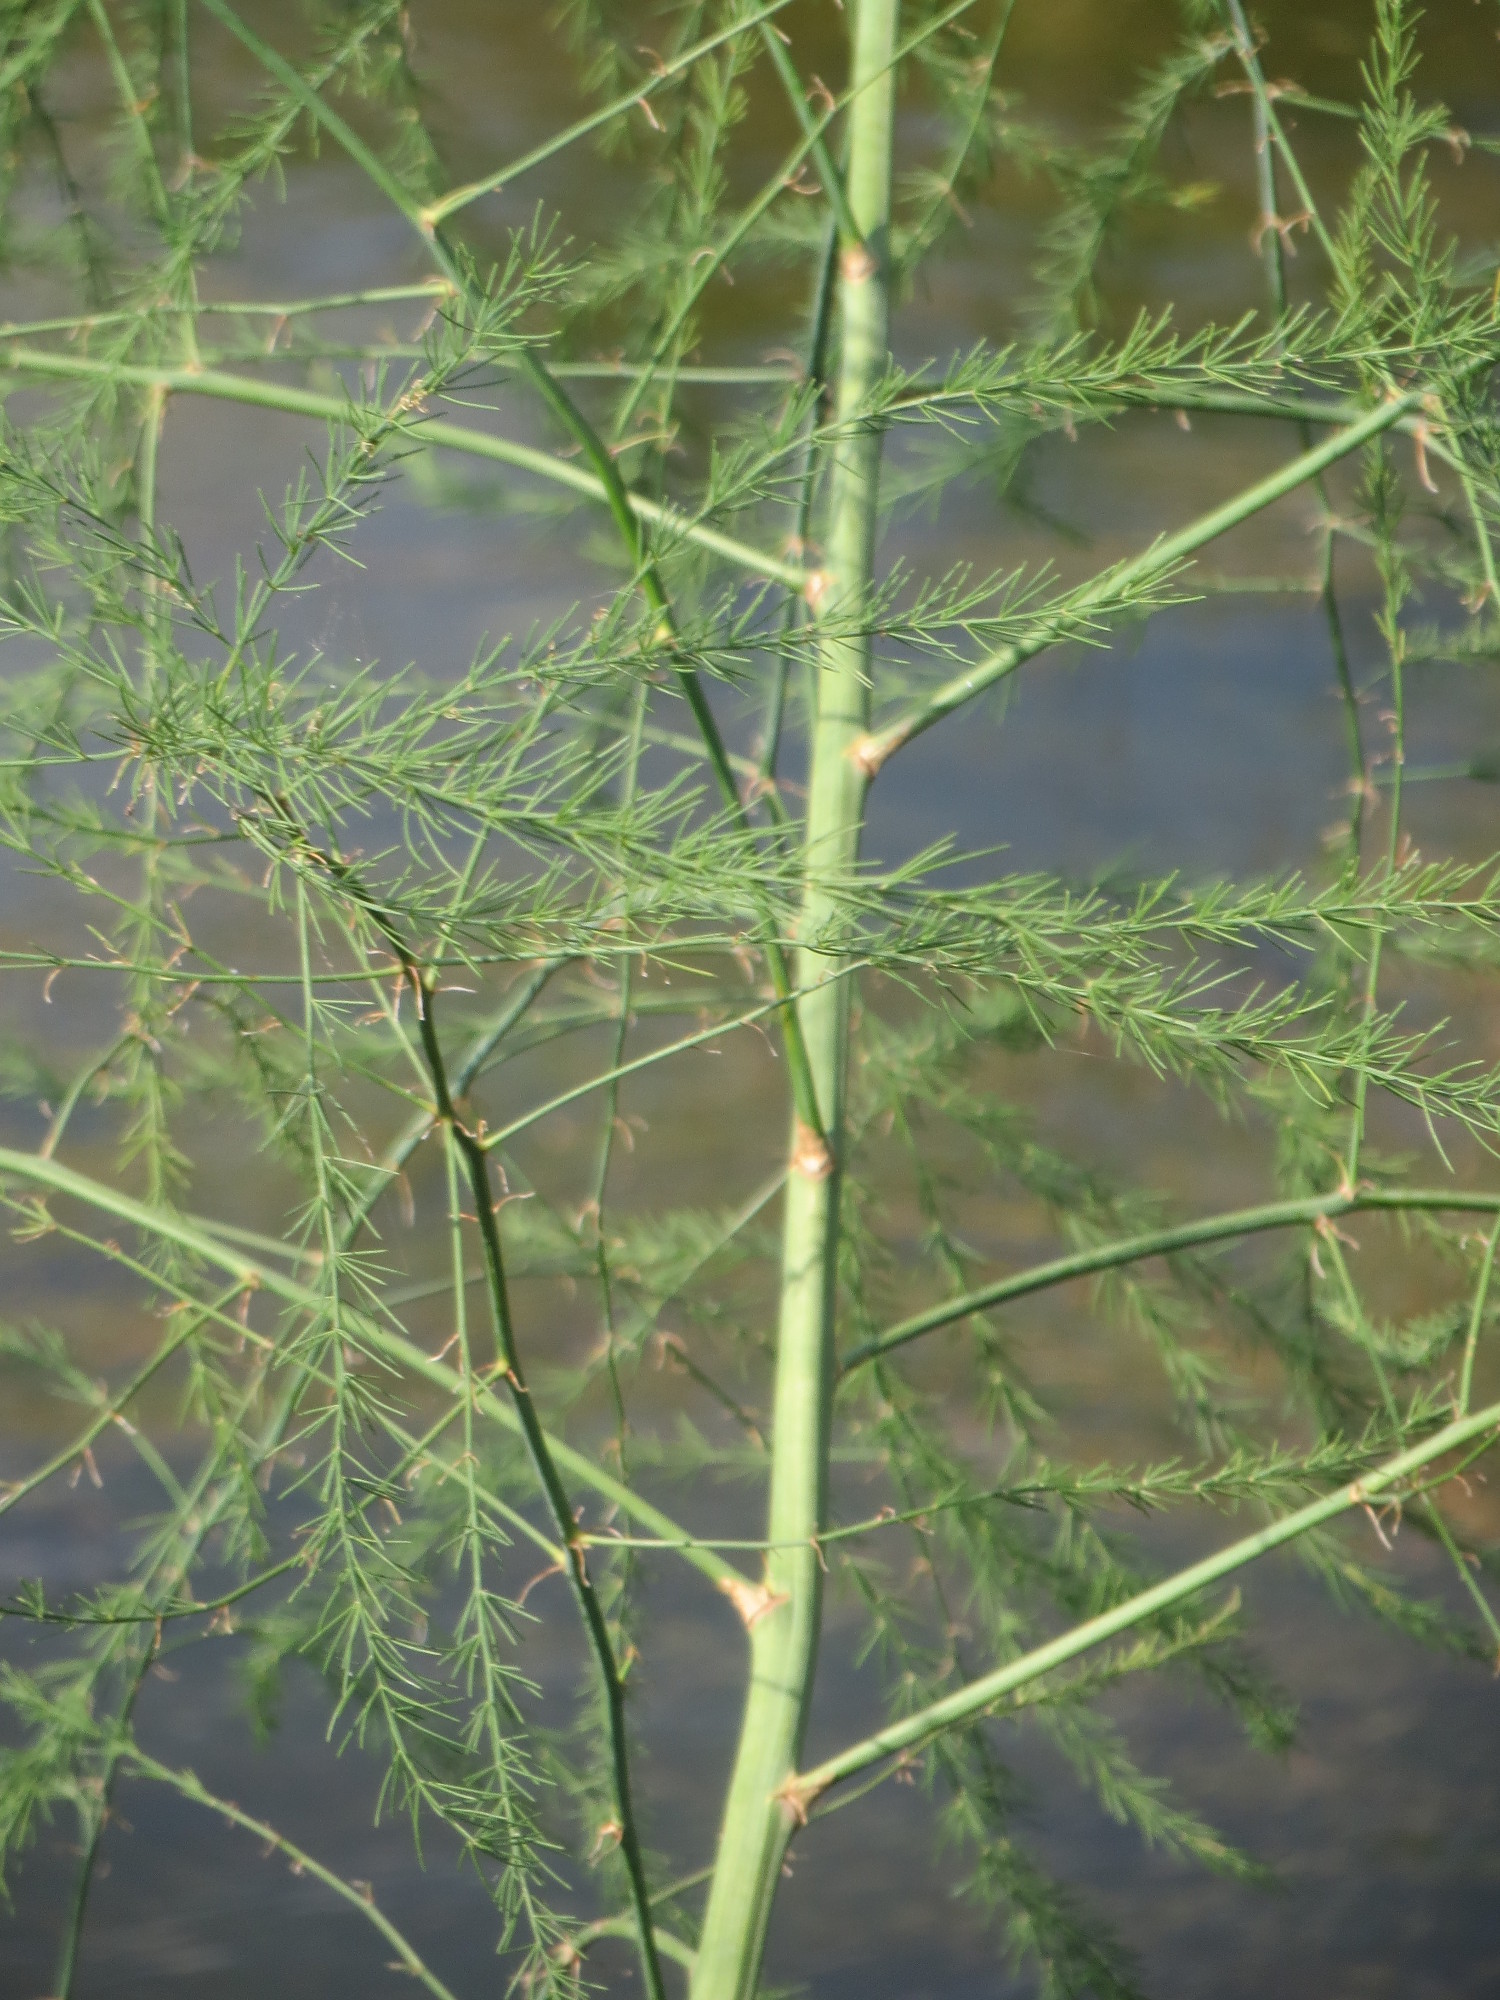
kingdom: Plantae
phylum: Tracheophyta
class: Liliopsida
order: Asparagales
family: Asparagaceae
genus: Asparagus
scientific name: Asparagus officinalis
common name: Garden asparagus
